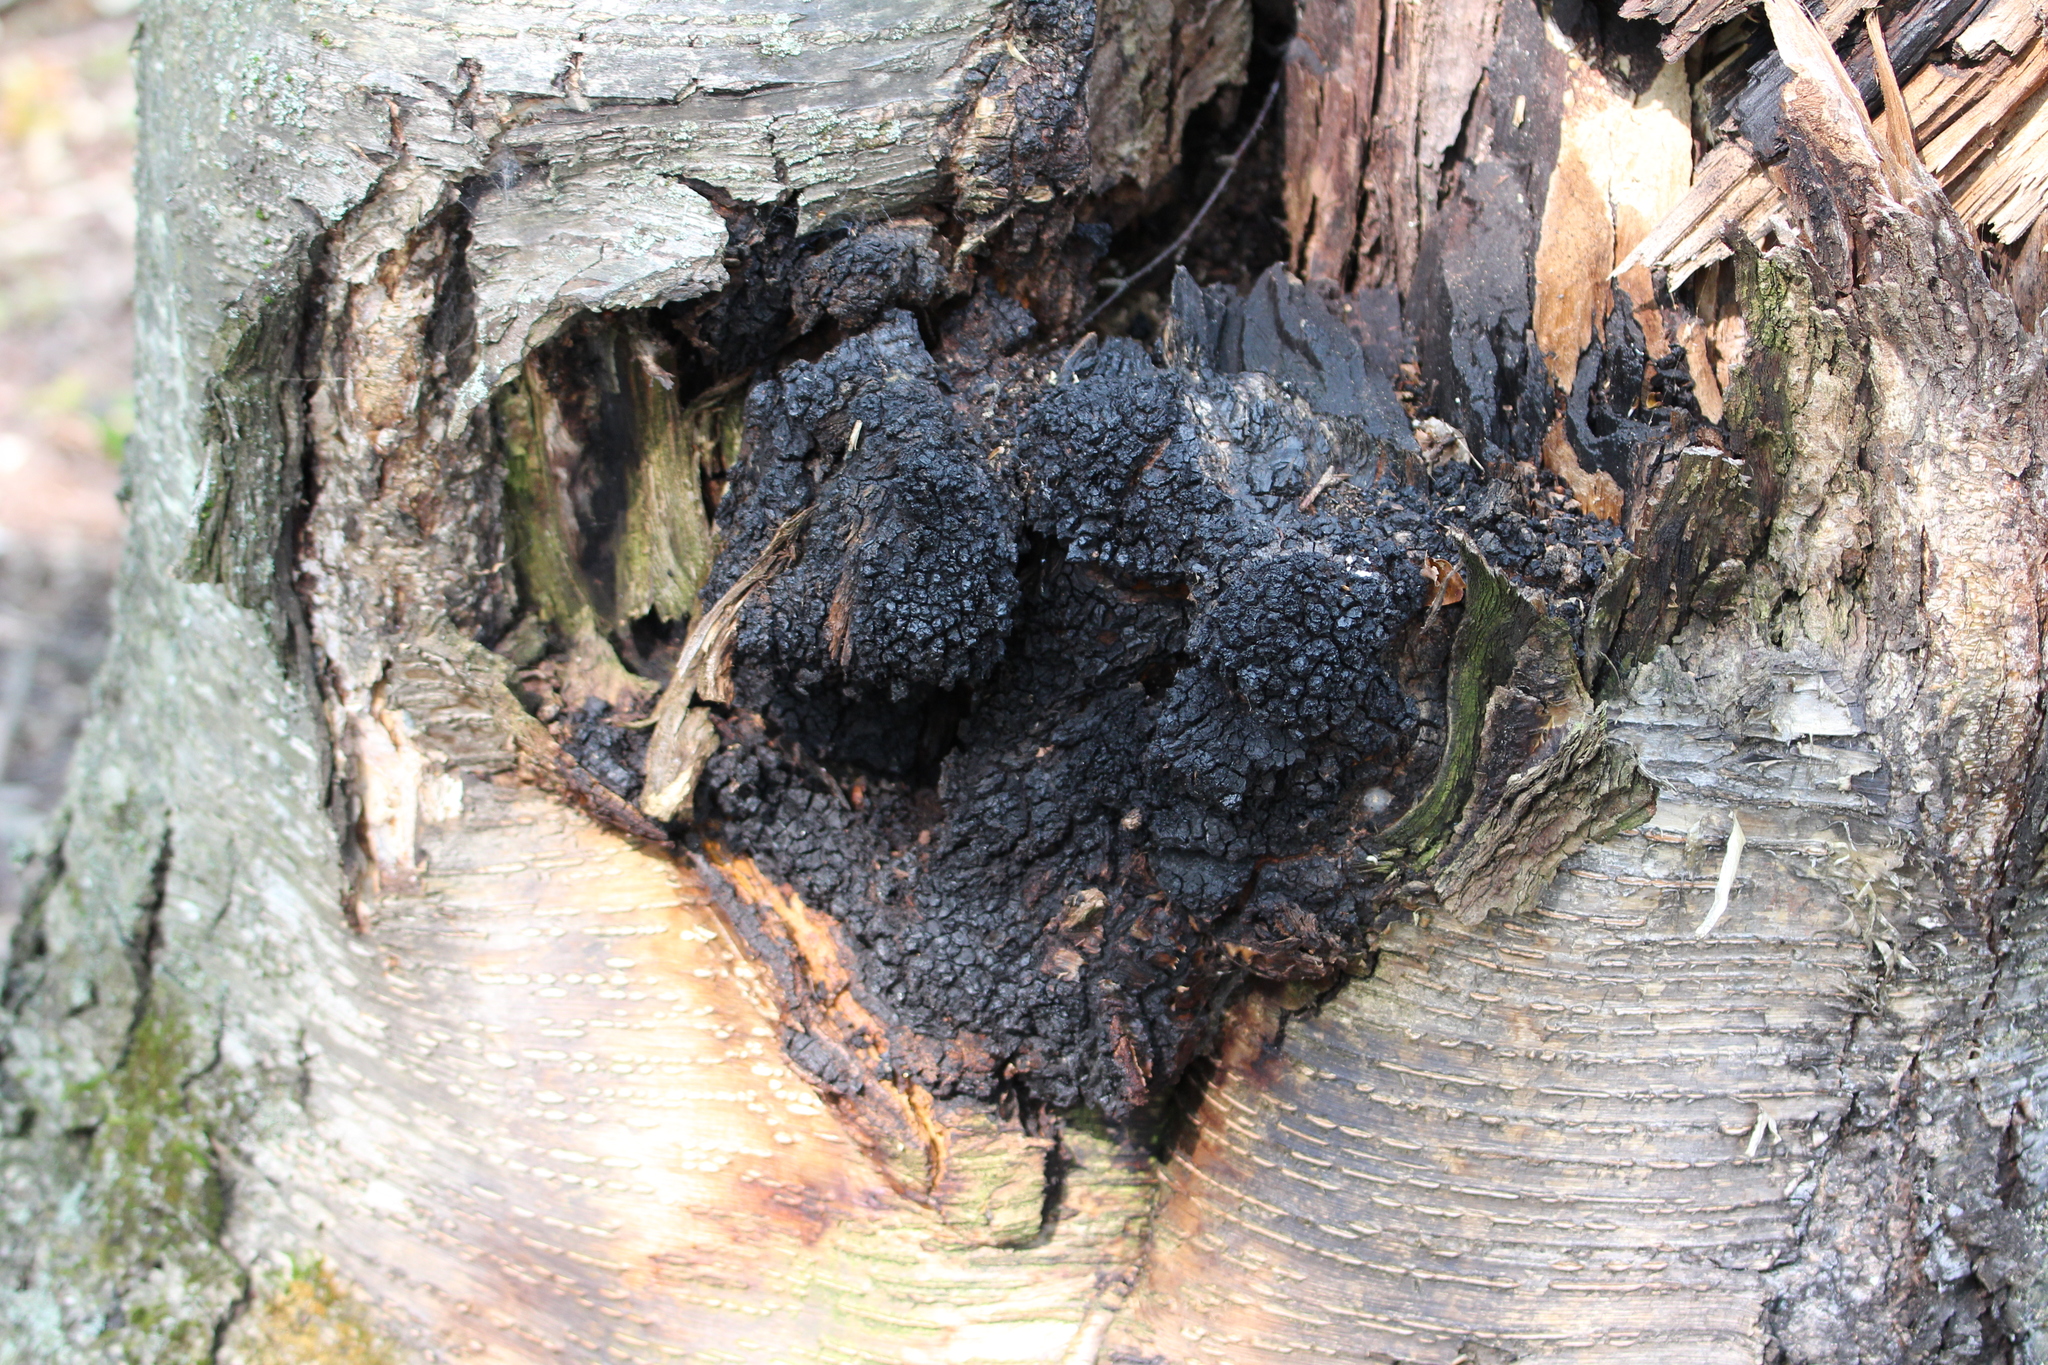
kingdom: Fungi
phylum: Basidiomycota
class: Agaricomycetes
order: Hymenochaetales
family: Hymenochaetaceae
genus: Inonotus
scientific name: Inonotus obliquus
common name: Chaga
